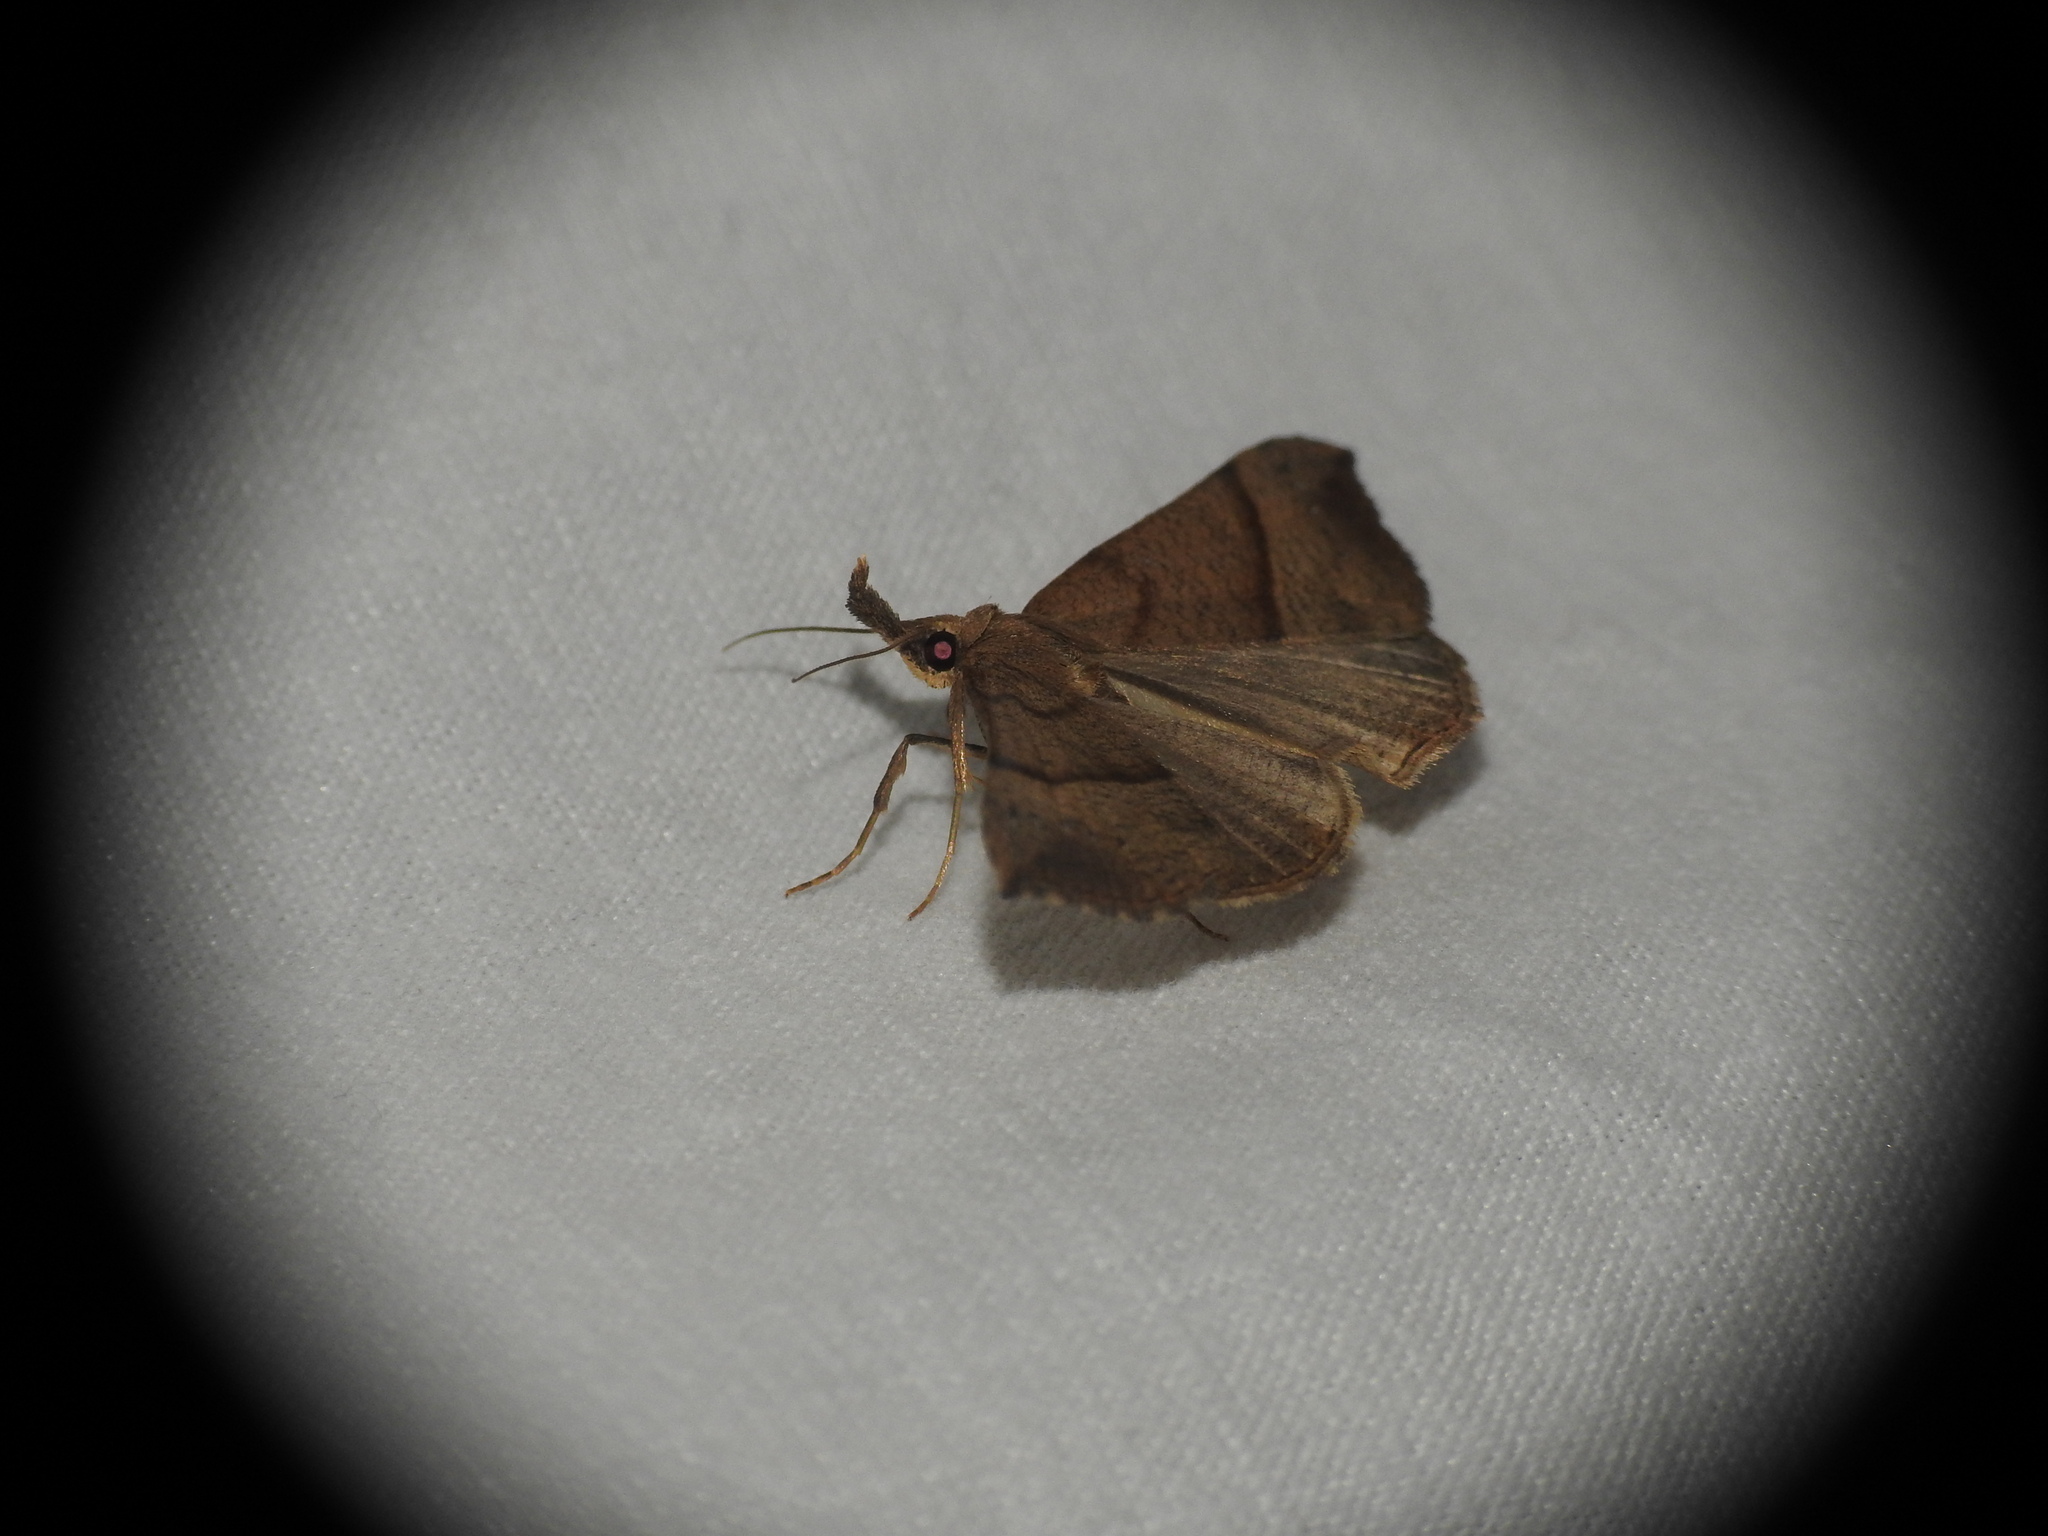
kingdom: Animalia
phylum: Arthropoda
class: Insecta
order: Lepidoptera
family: Erebidae
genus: Hypena
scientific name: Hypena proboscidalis
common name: Snout
